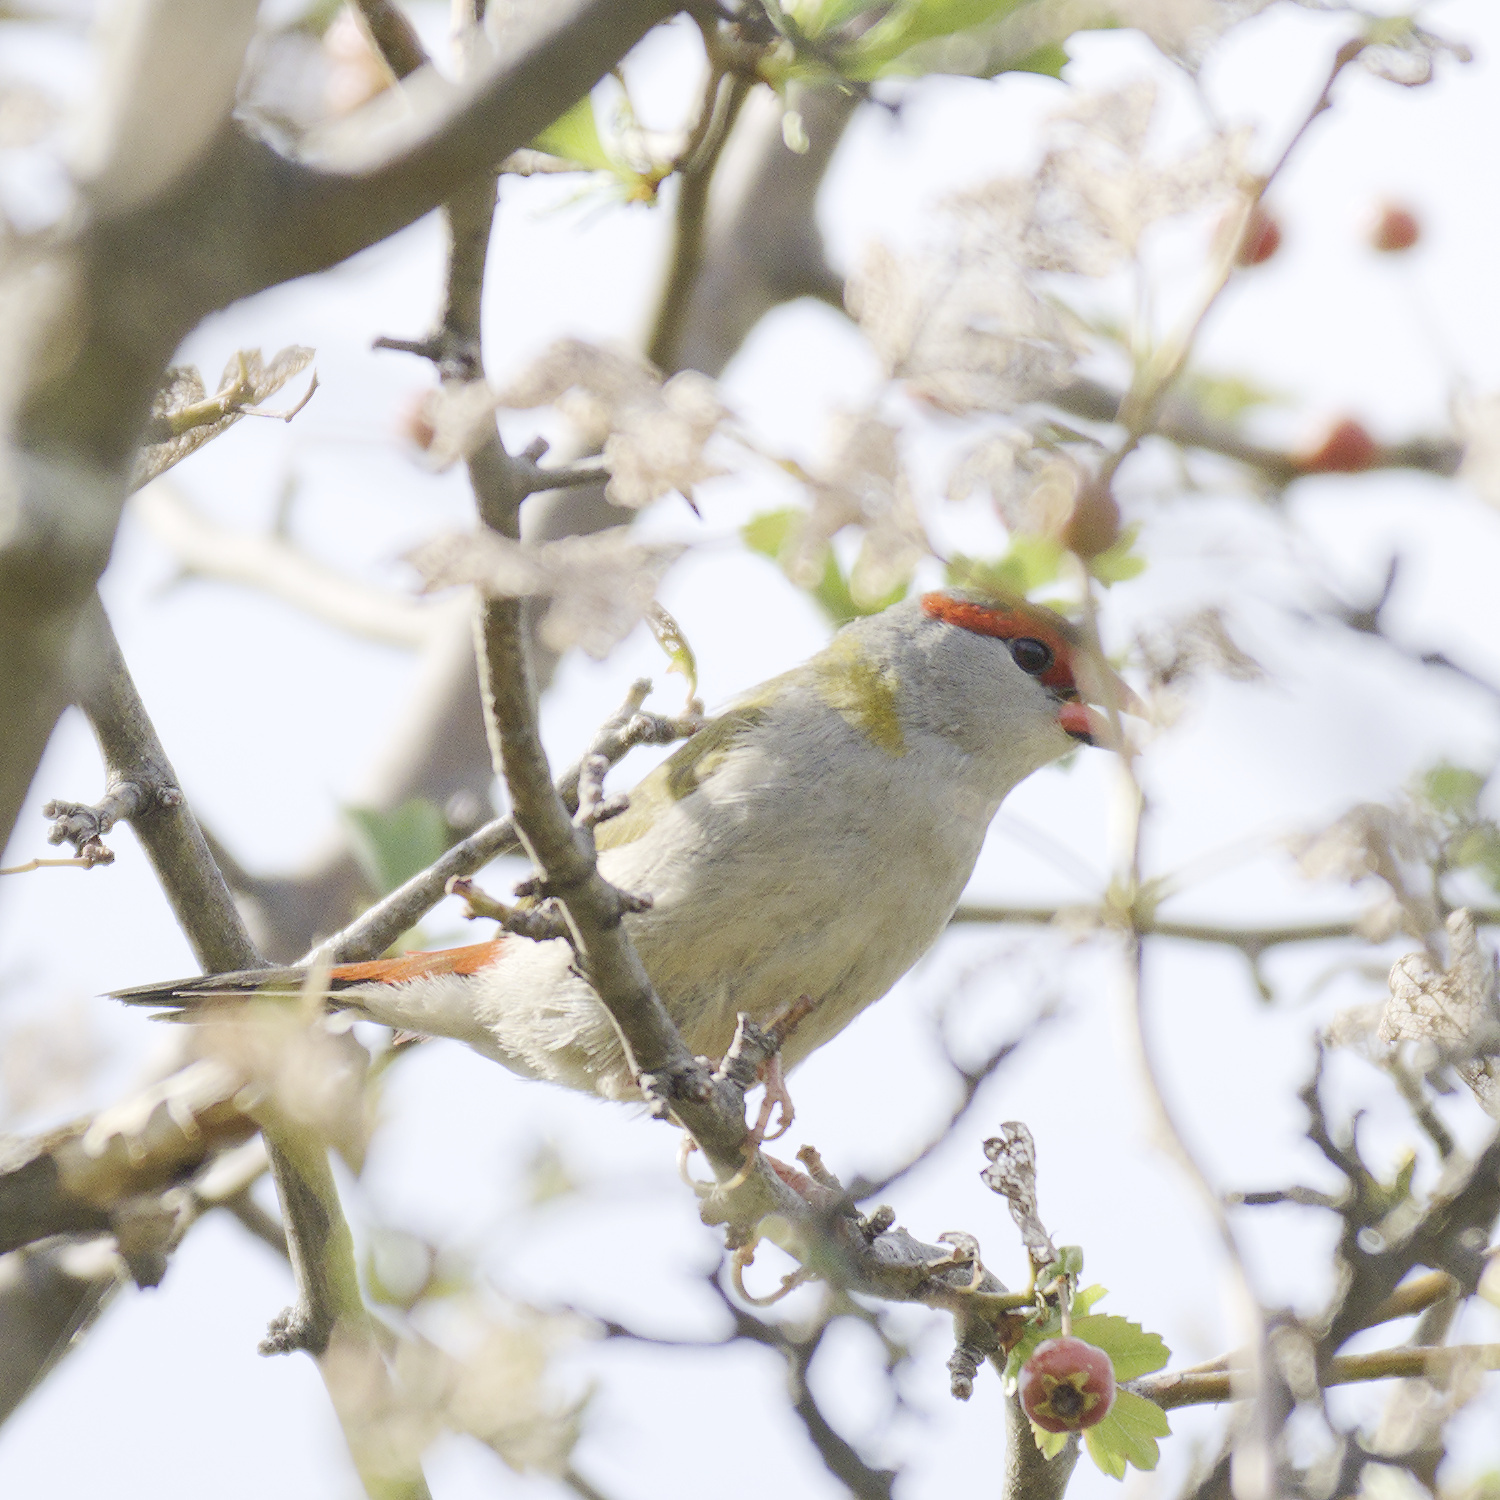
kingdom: Animalia
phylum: Chordata
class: Aves
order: Passeriformes
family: Estrildidae
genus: Neochmia
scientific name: Neochmia temporalis
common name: Red-browed finch
